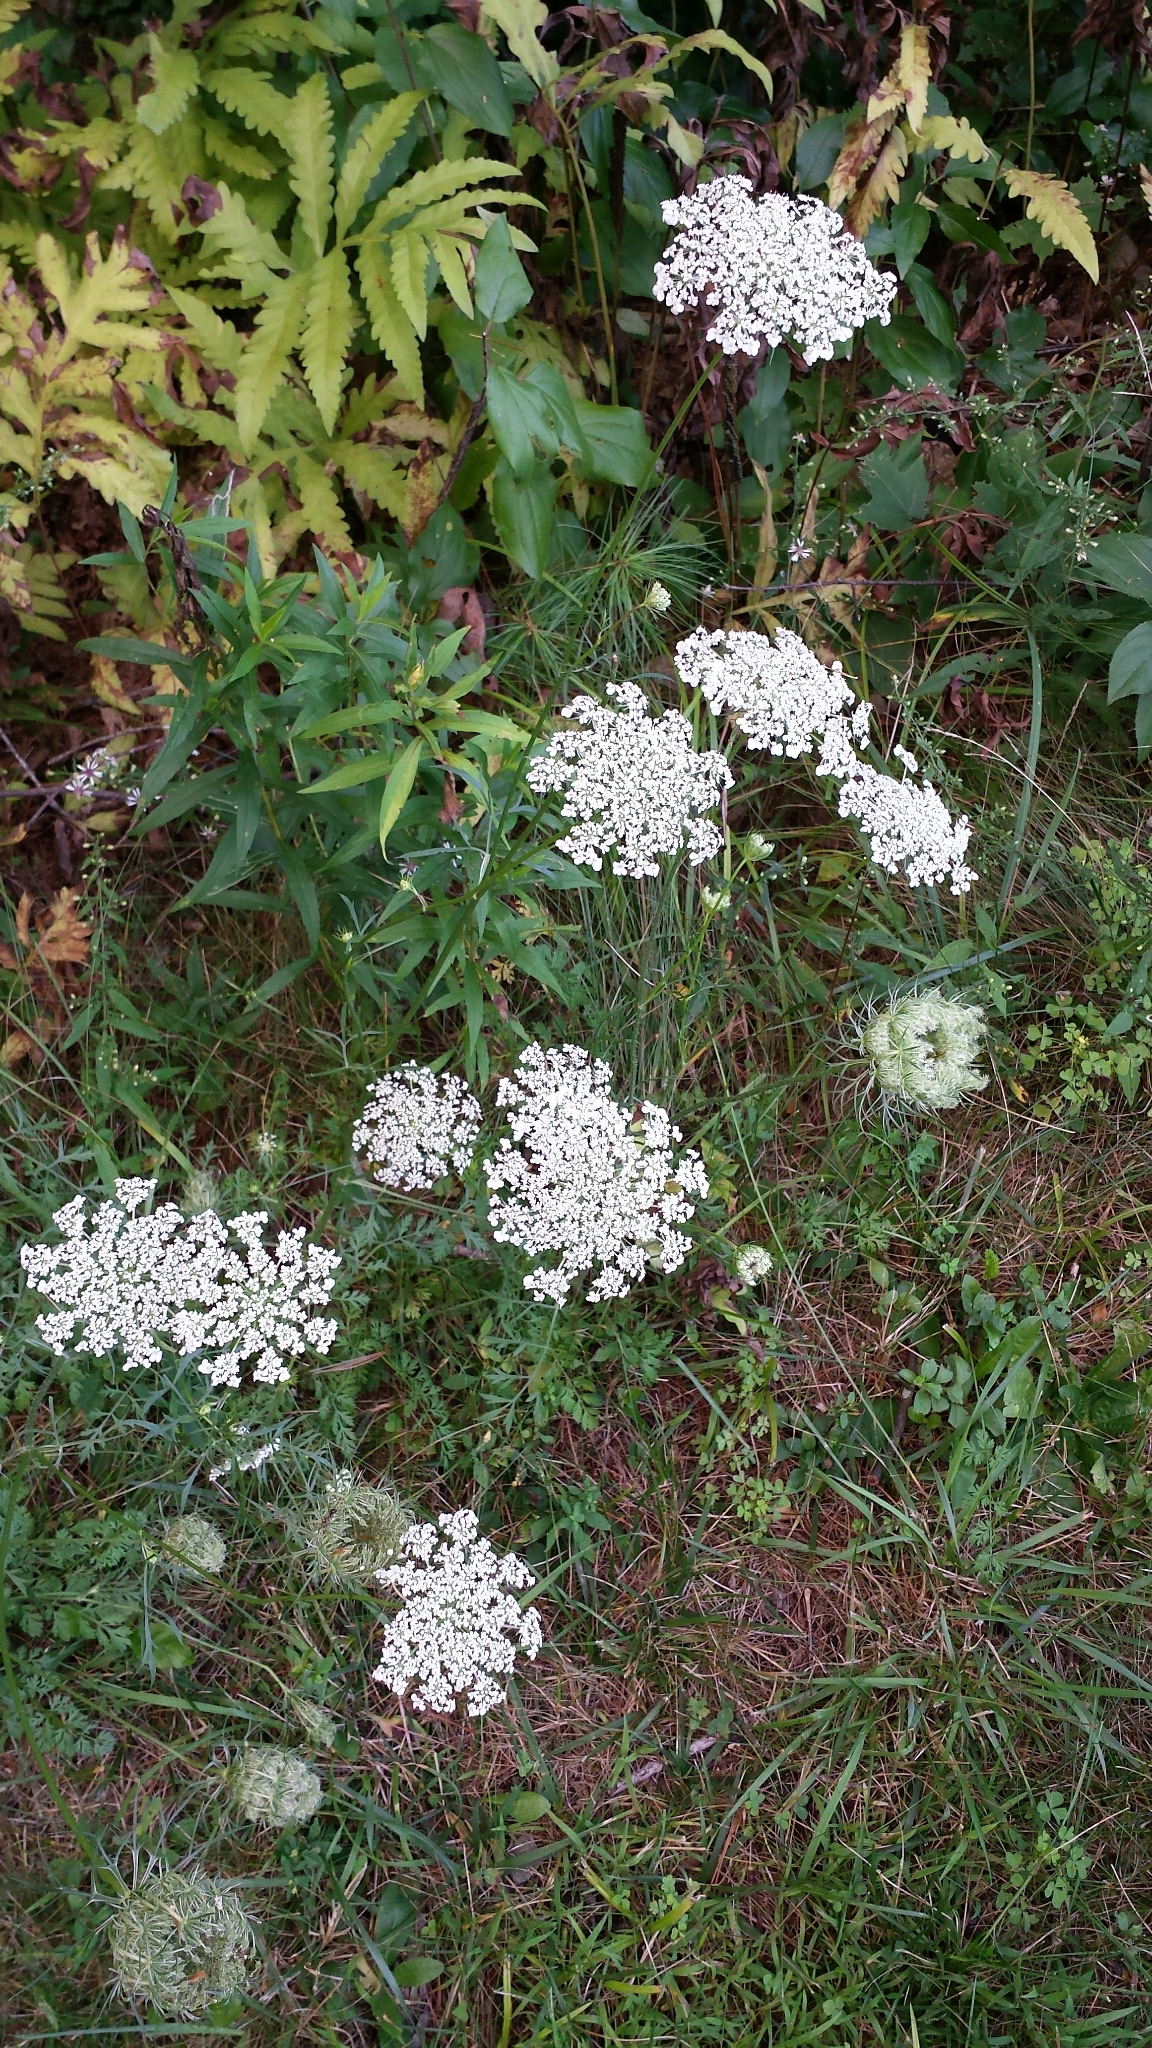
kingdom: Plantae
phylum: Tracheophyta
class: Magnoliopsida
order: Apiales
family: Apiaceae
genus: Daucus
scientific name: Daucus carota
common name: Wild carrot
